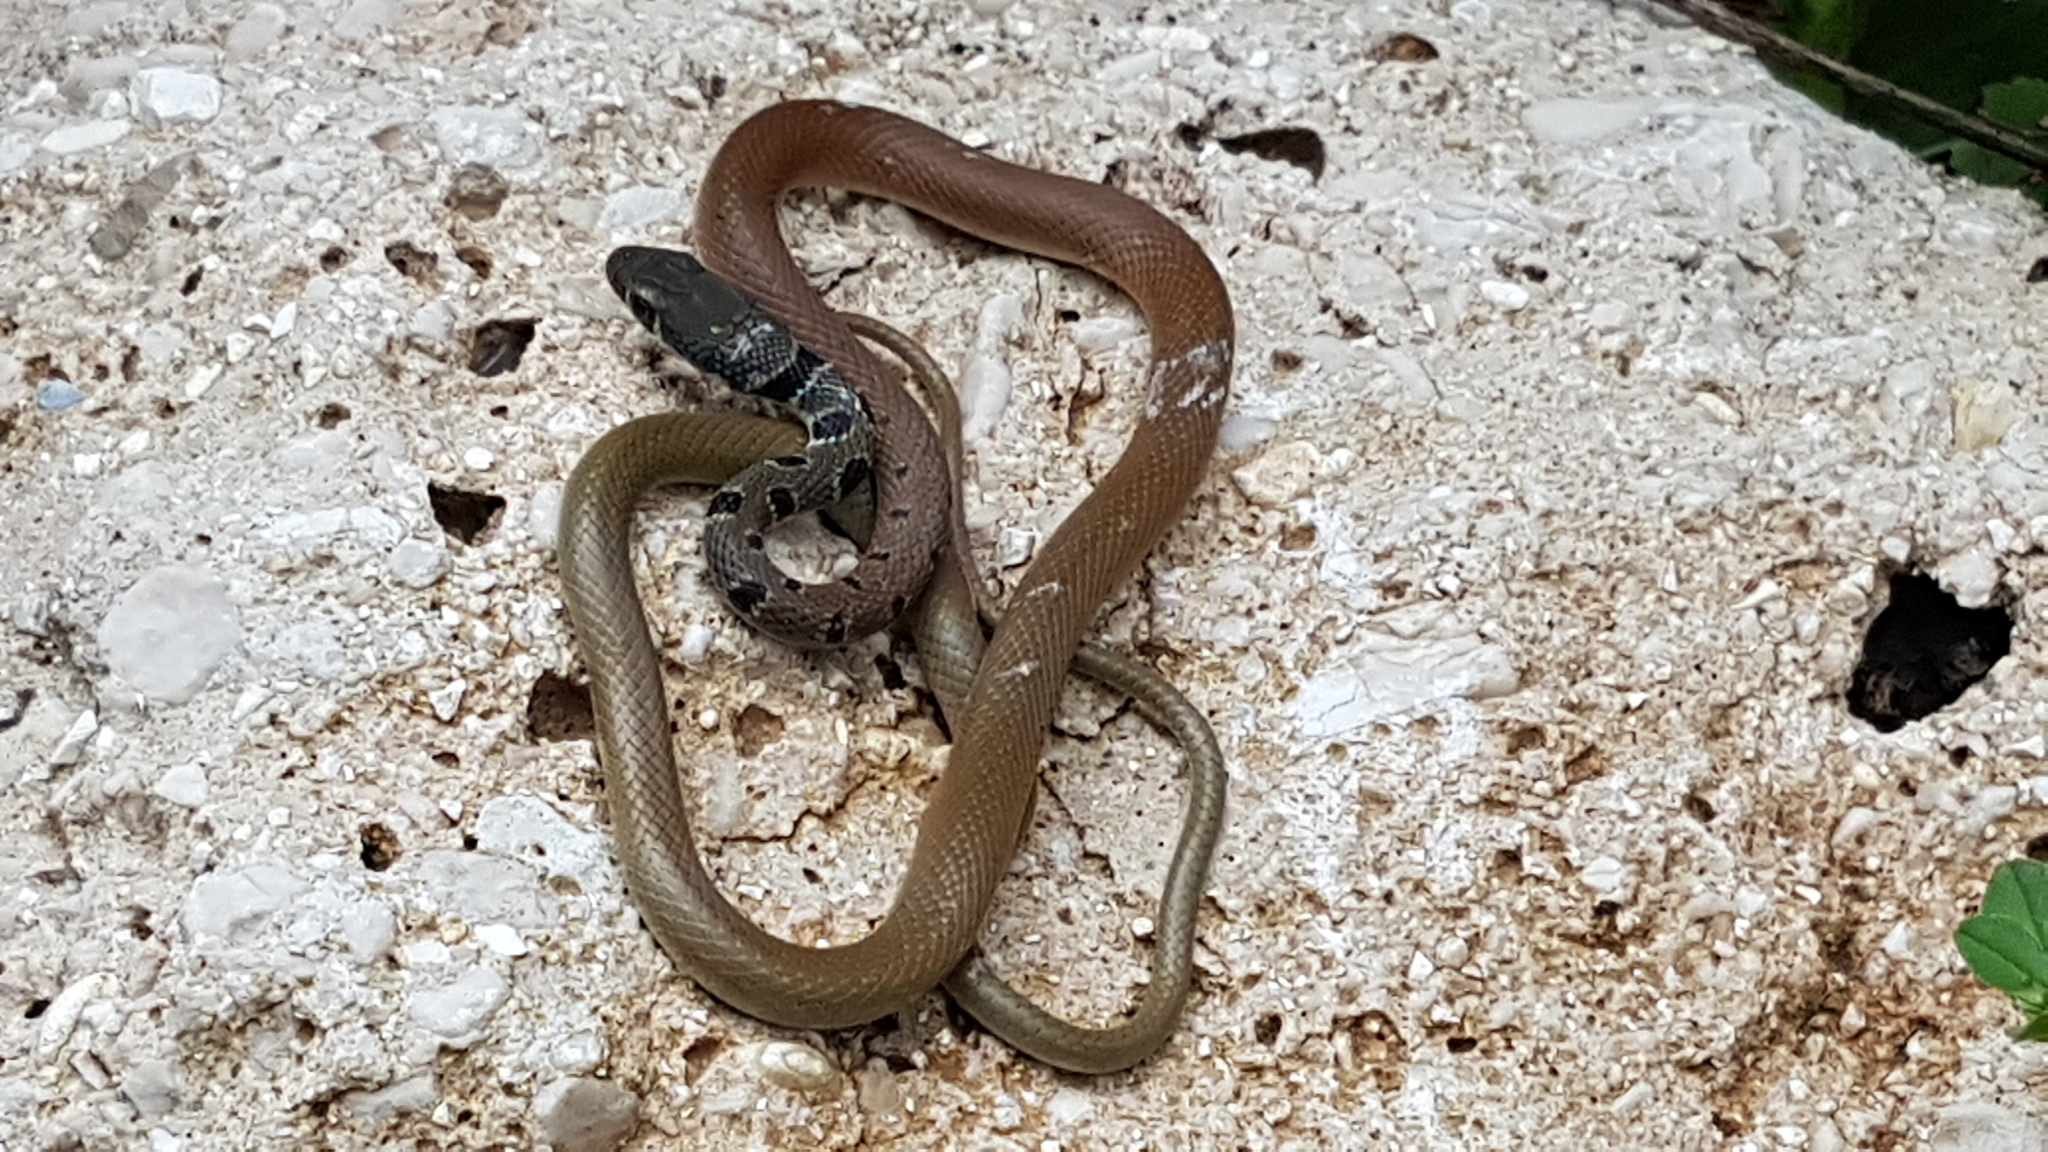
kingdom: Animalia
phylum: Chordata
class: Squamata
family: Colubridae
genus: Platyceps
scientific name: Platyceps najadum
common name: Dahl's whip snake
